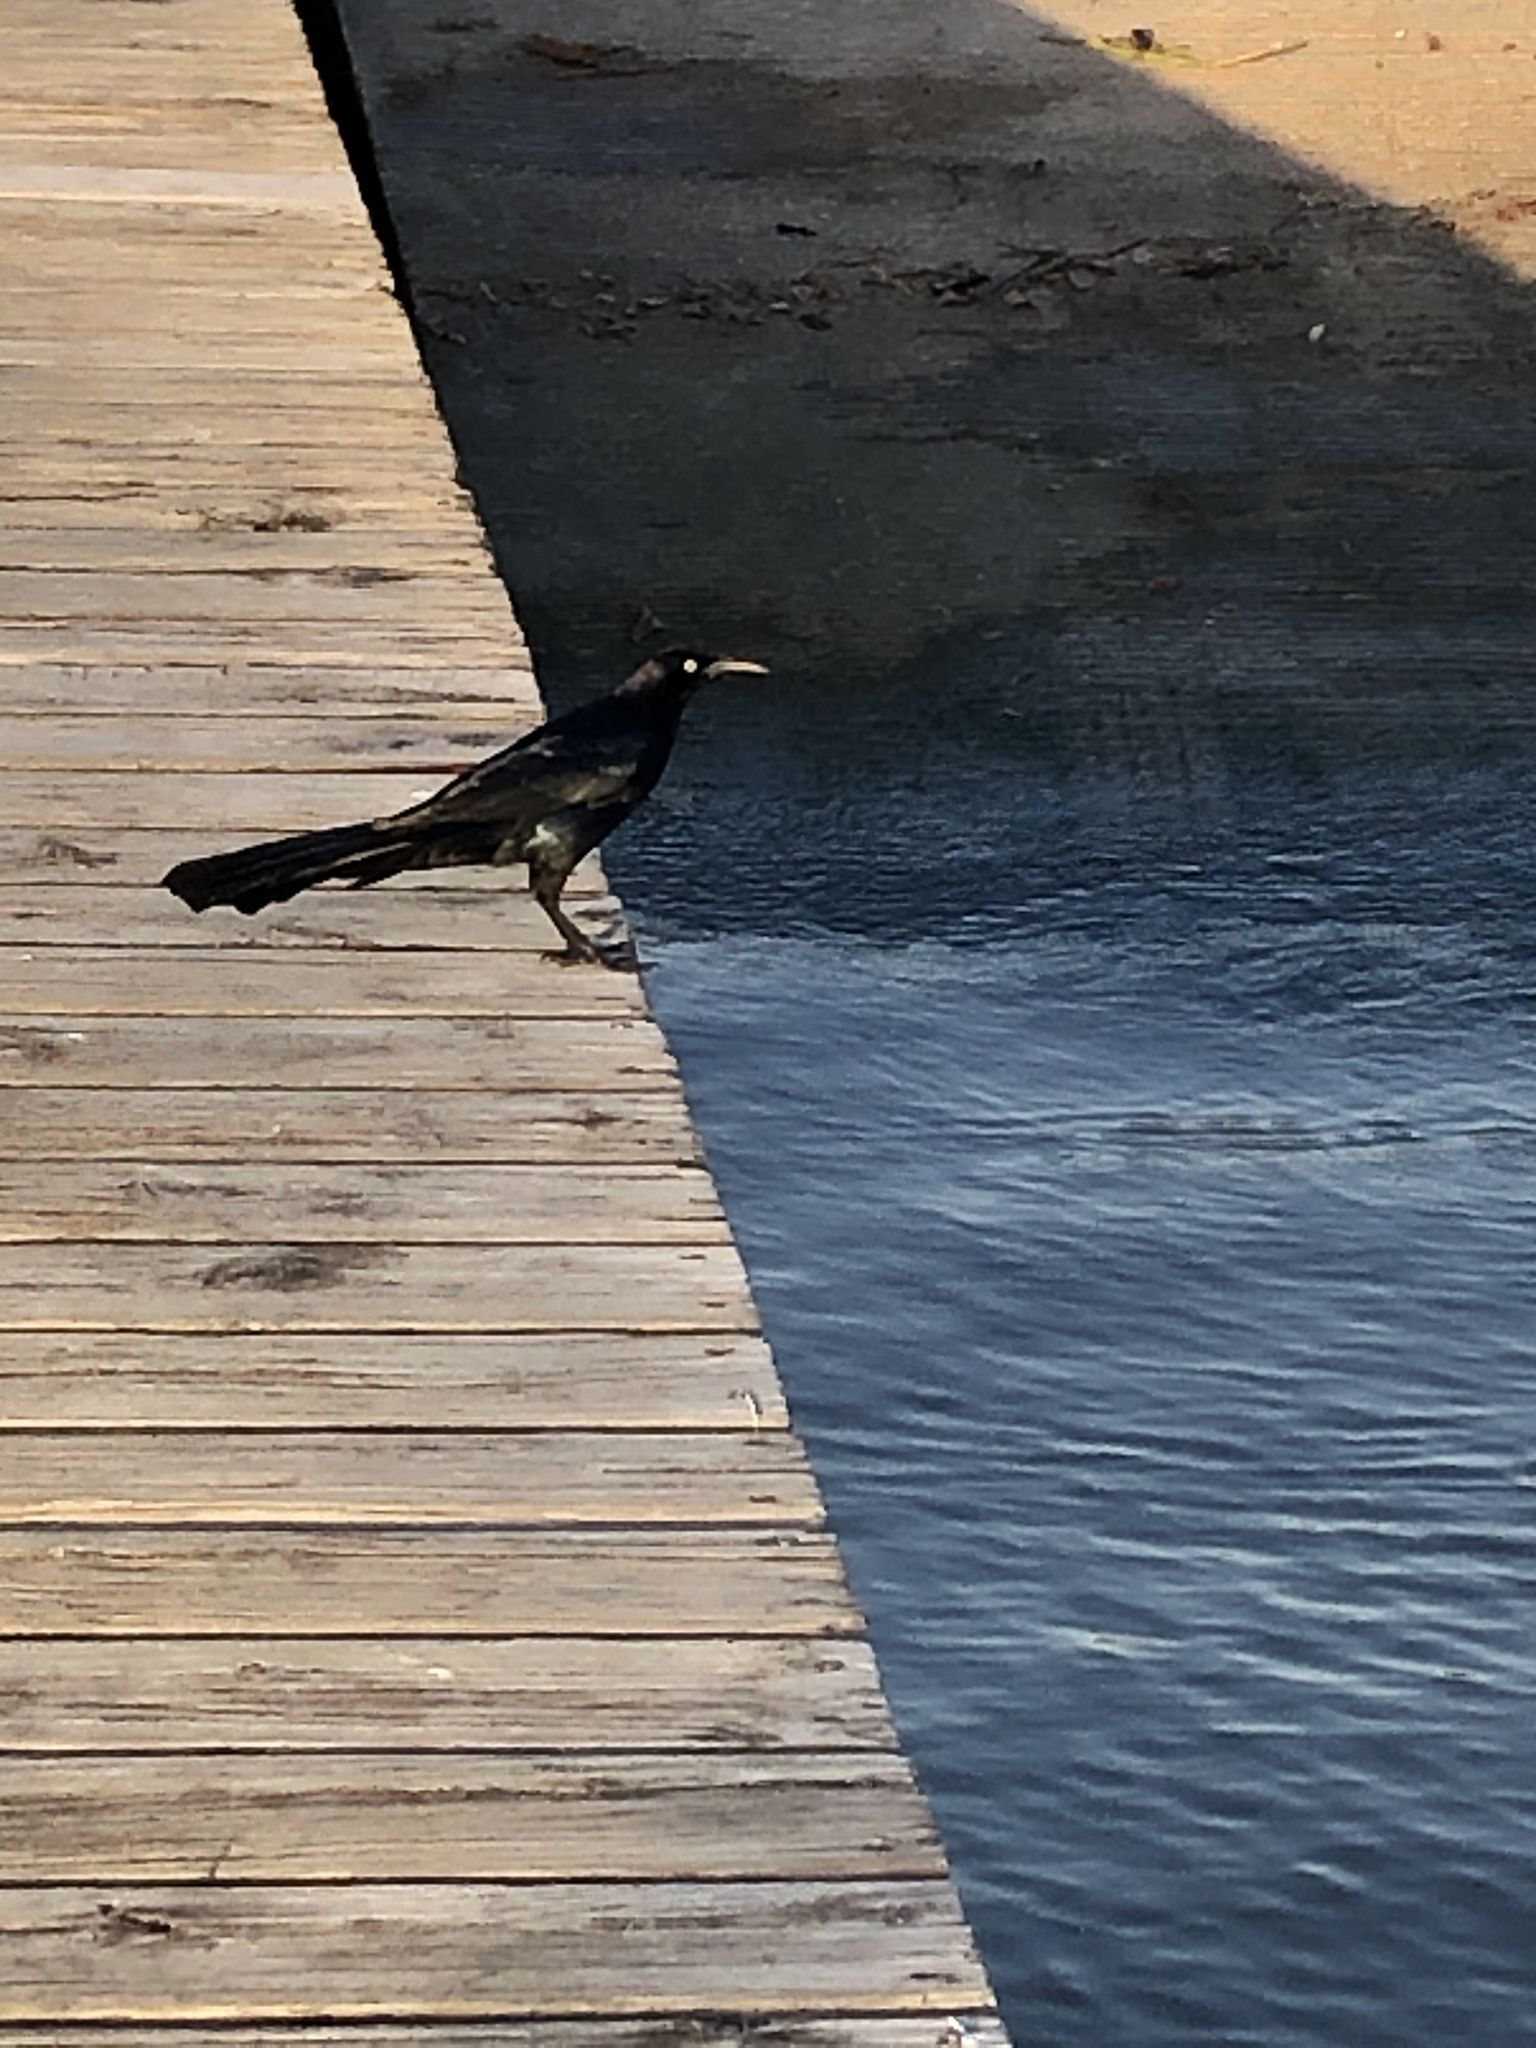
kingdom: Animalia
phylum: Chordata
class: Aves
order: Passeriformes
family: Icteridae
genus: Quiscalus
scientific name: Quiscalus mexicanus
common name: Great-tailed grackle
